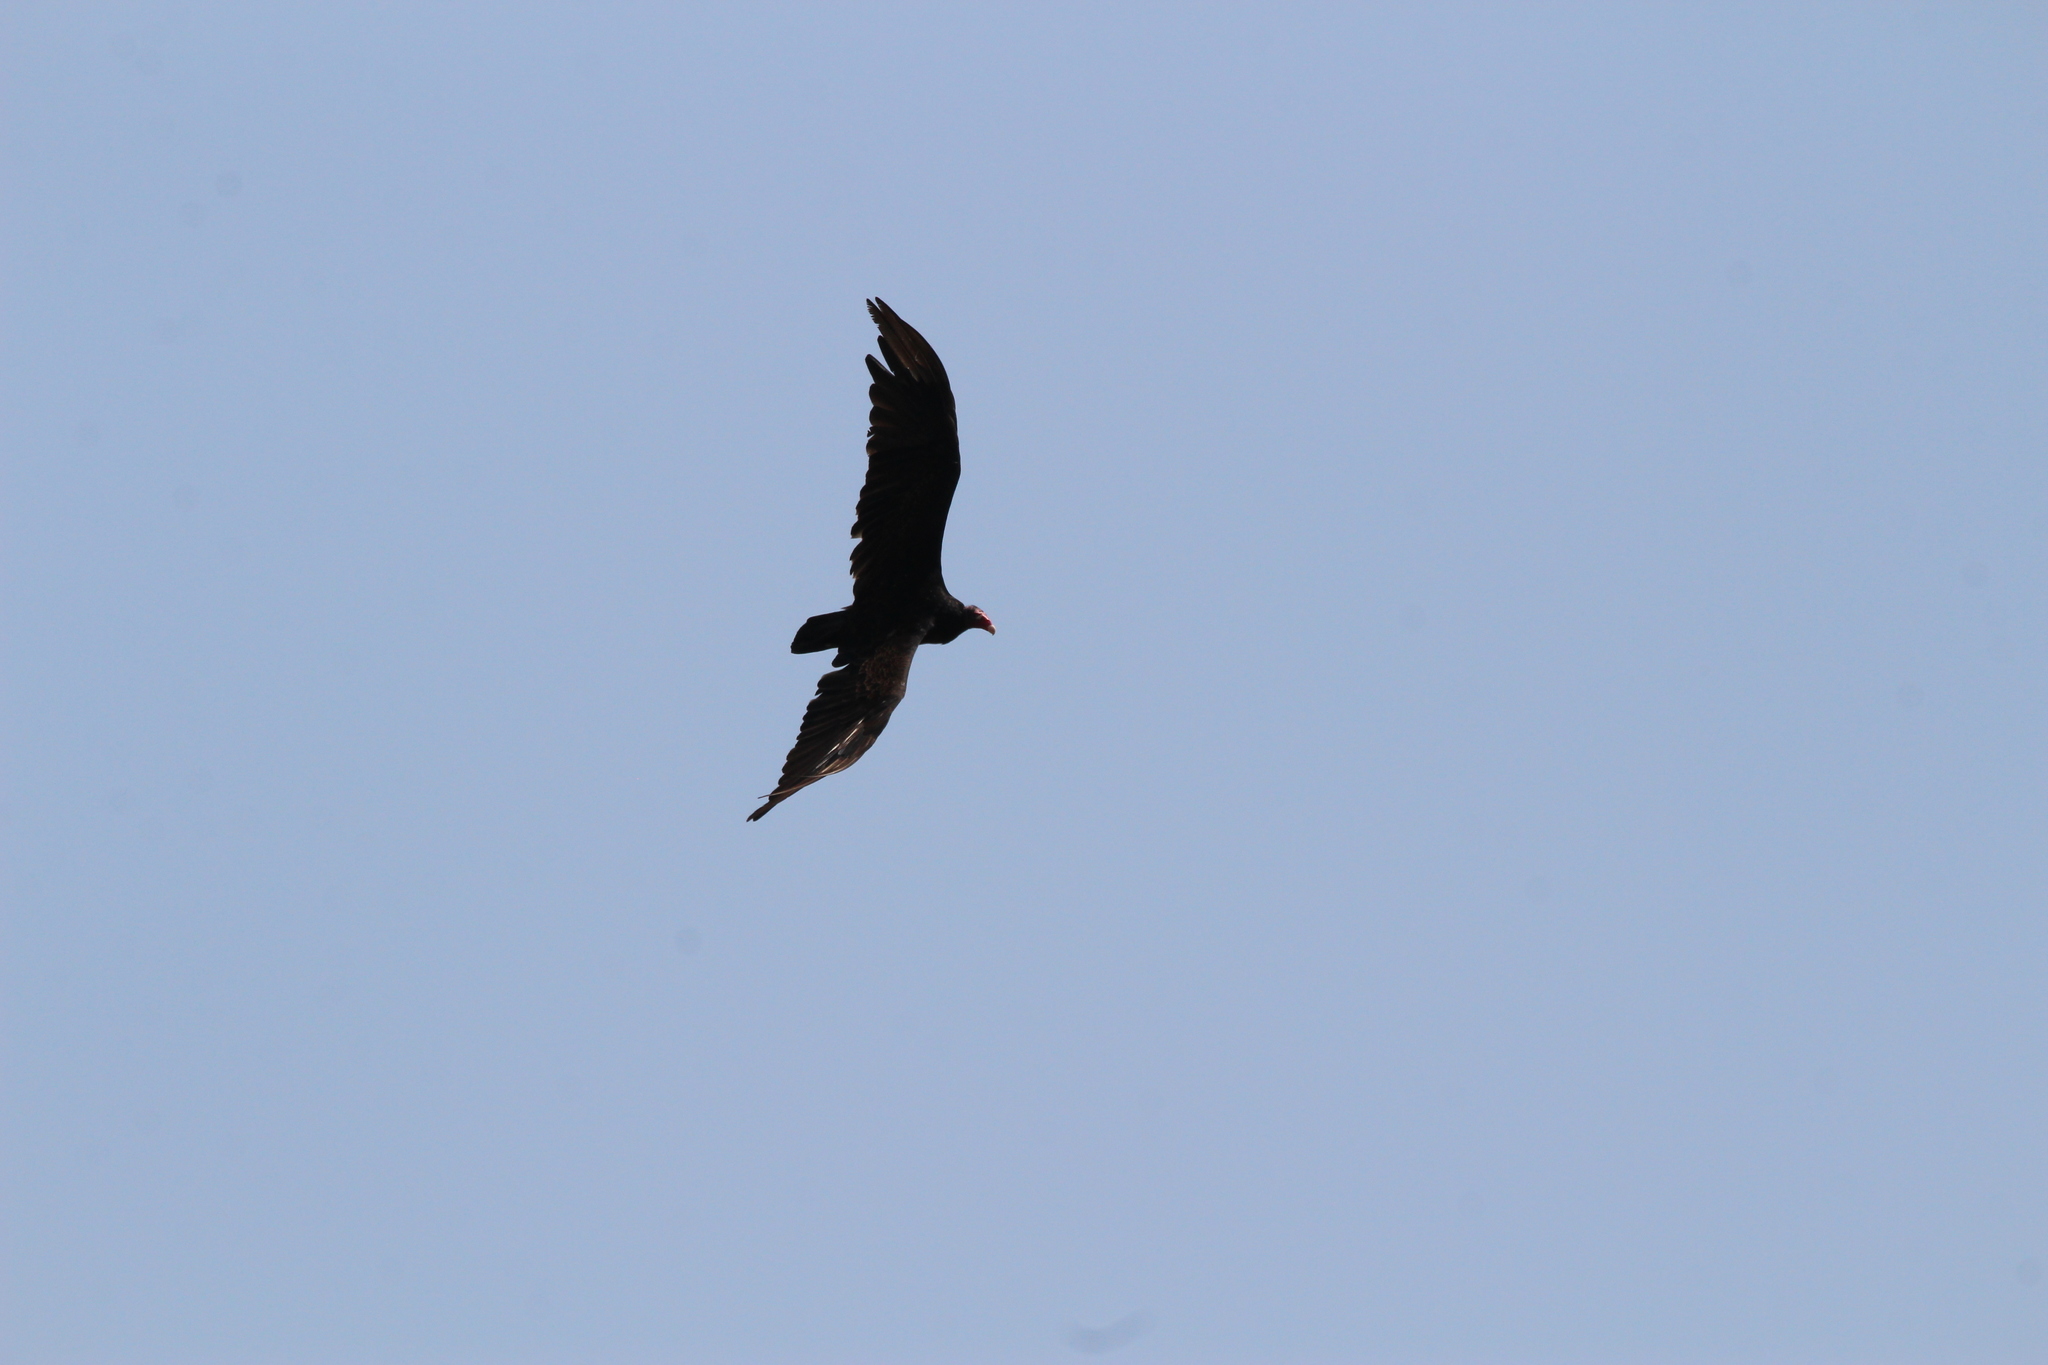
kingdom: Animalia
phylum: Chordata
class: Aves
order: Accipitriformes
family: Cathartidae
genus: Cathartes
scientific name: Cathartes aura
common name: Turkey vulture
